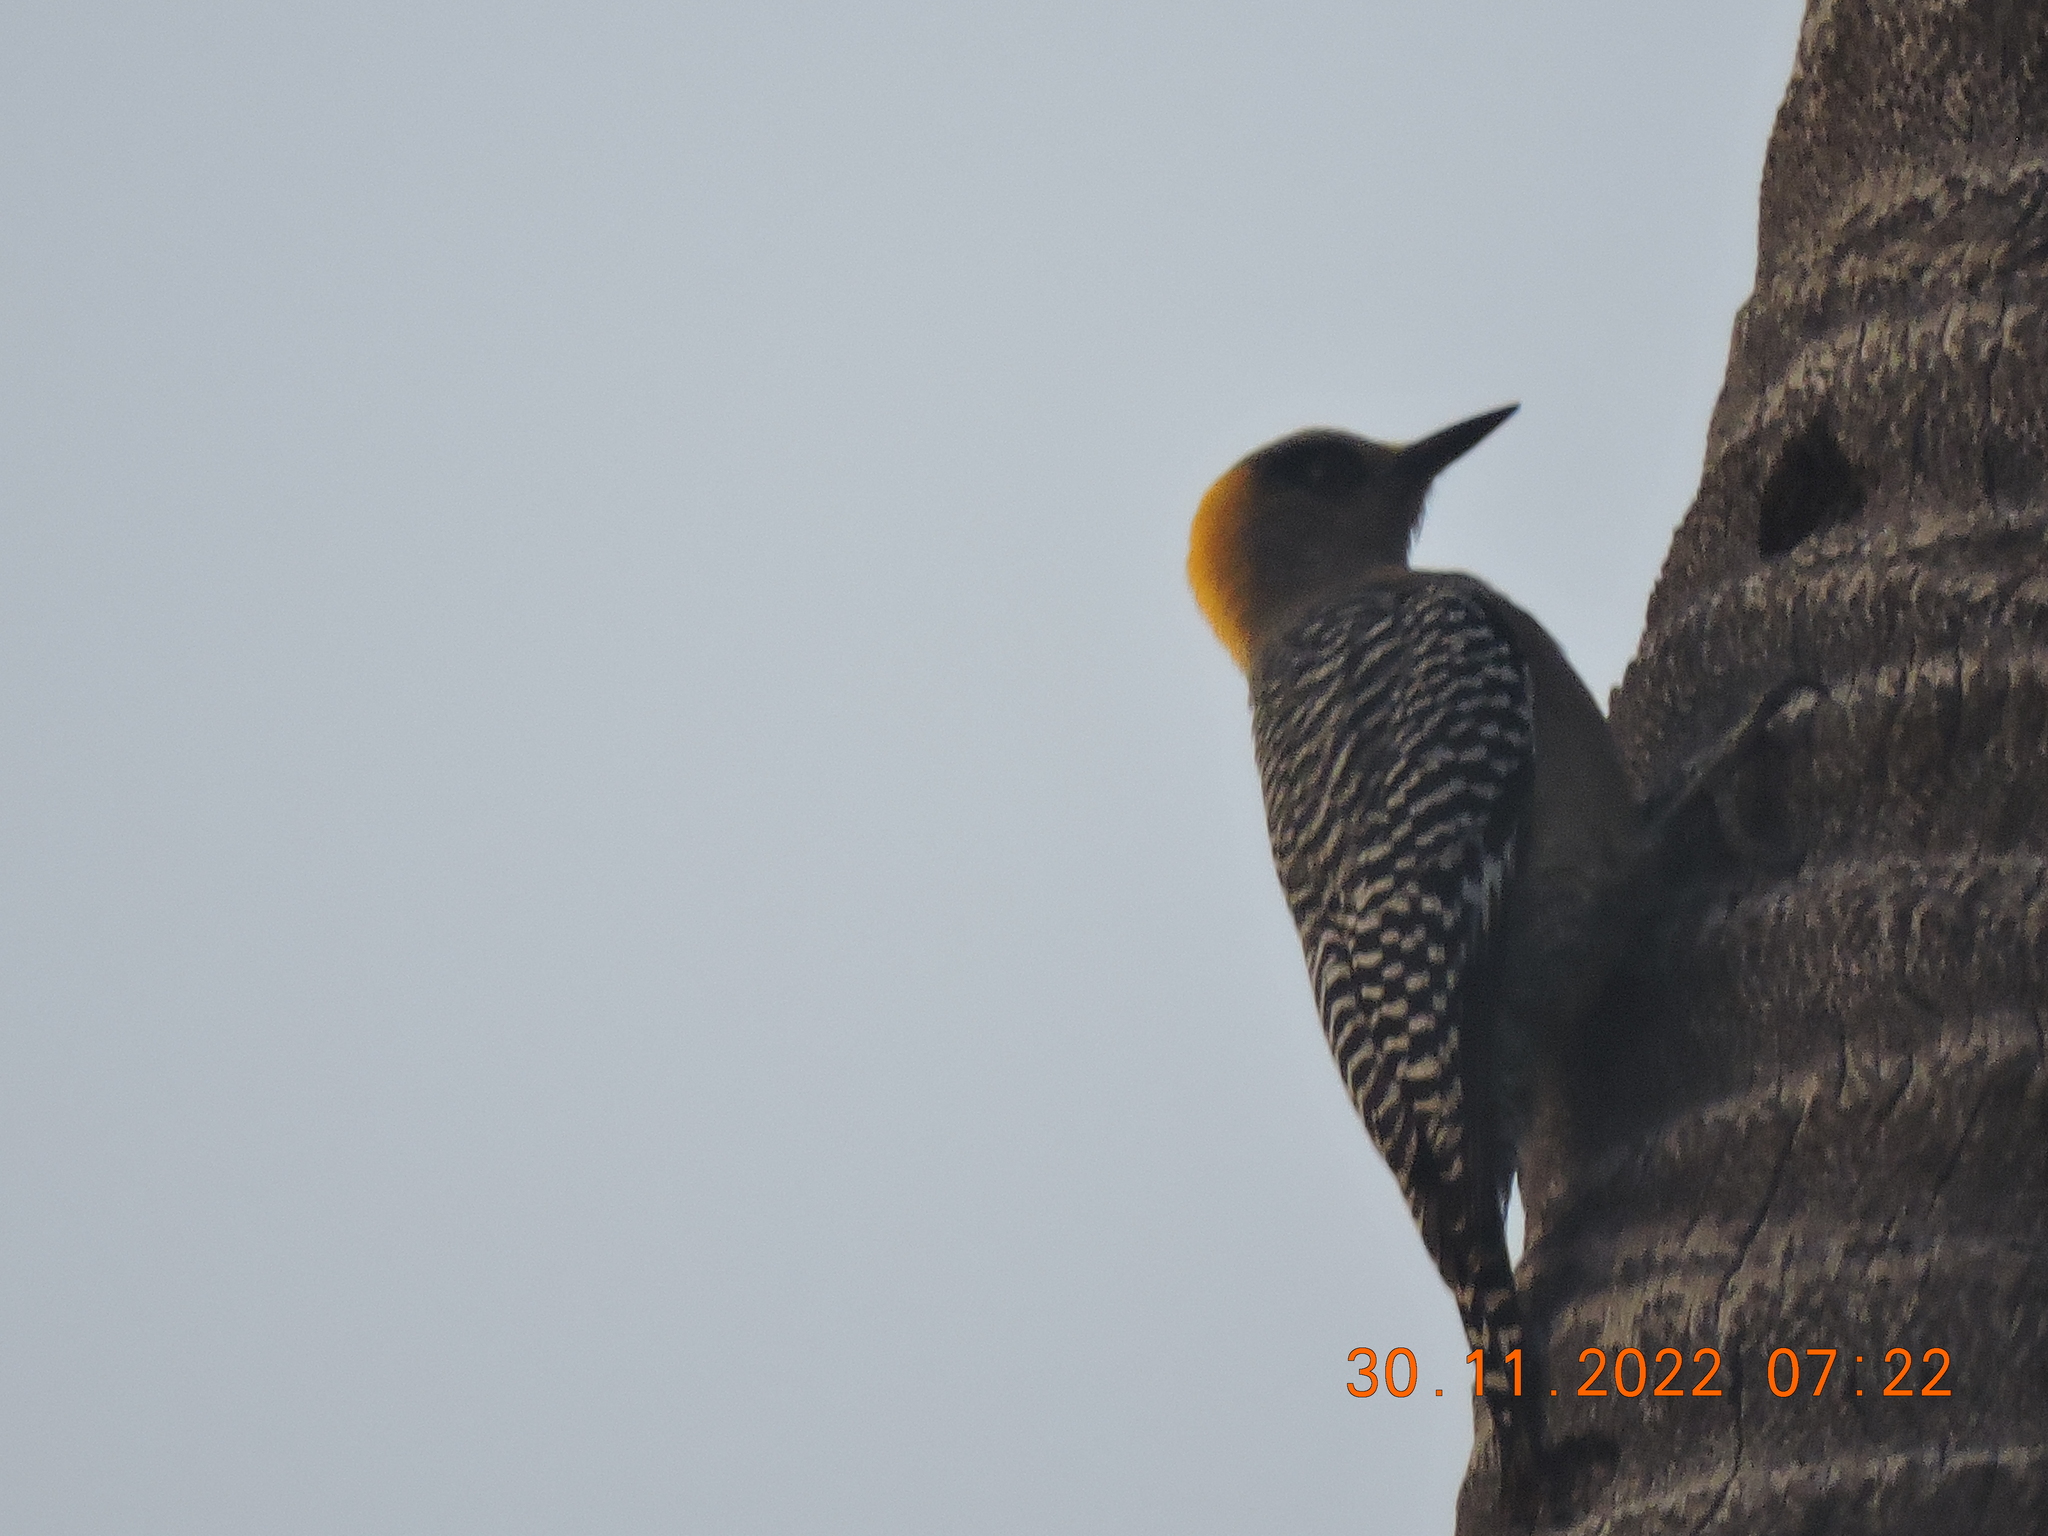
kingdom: Animalia
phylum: Chordata
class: Aves
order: Piciformes
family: Picidae
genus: Melanerpes
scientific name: Melanerpes chrysogenys
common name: Golden-cheeked woodpecker
